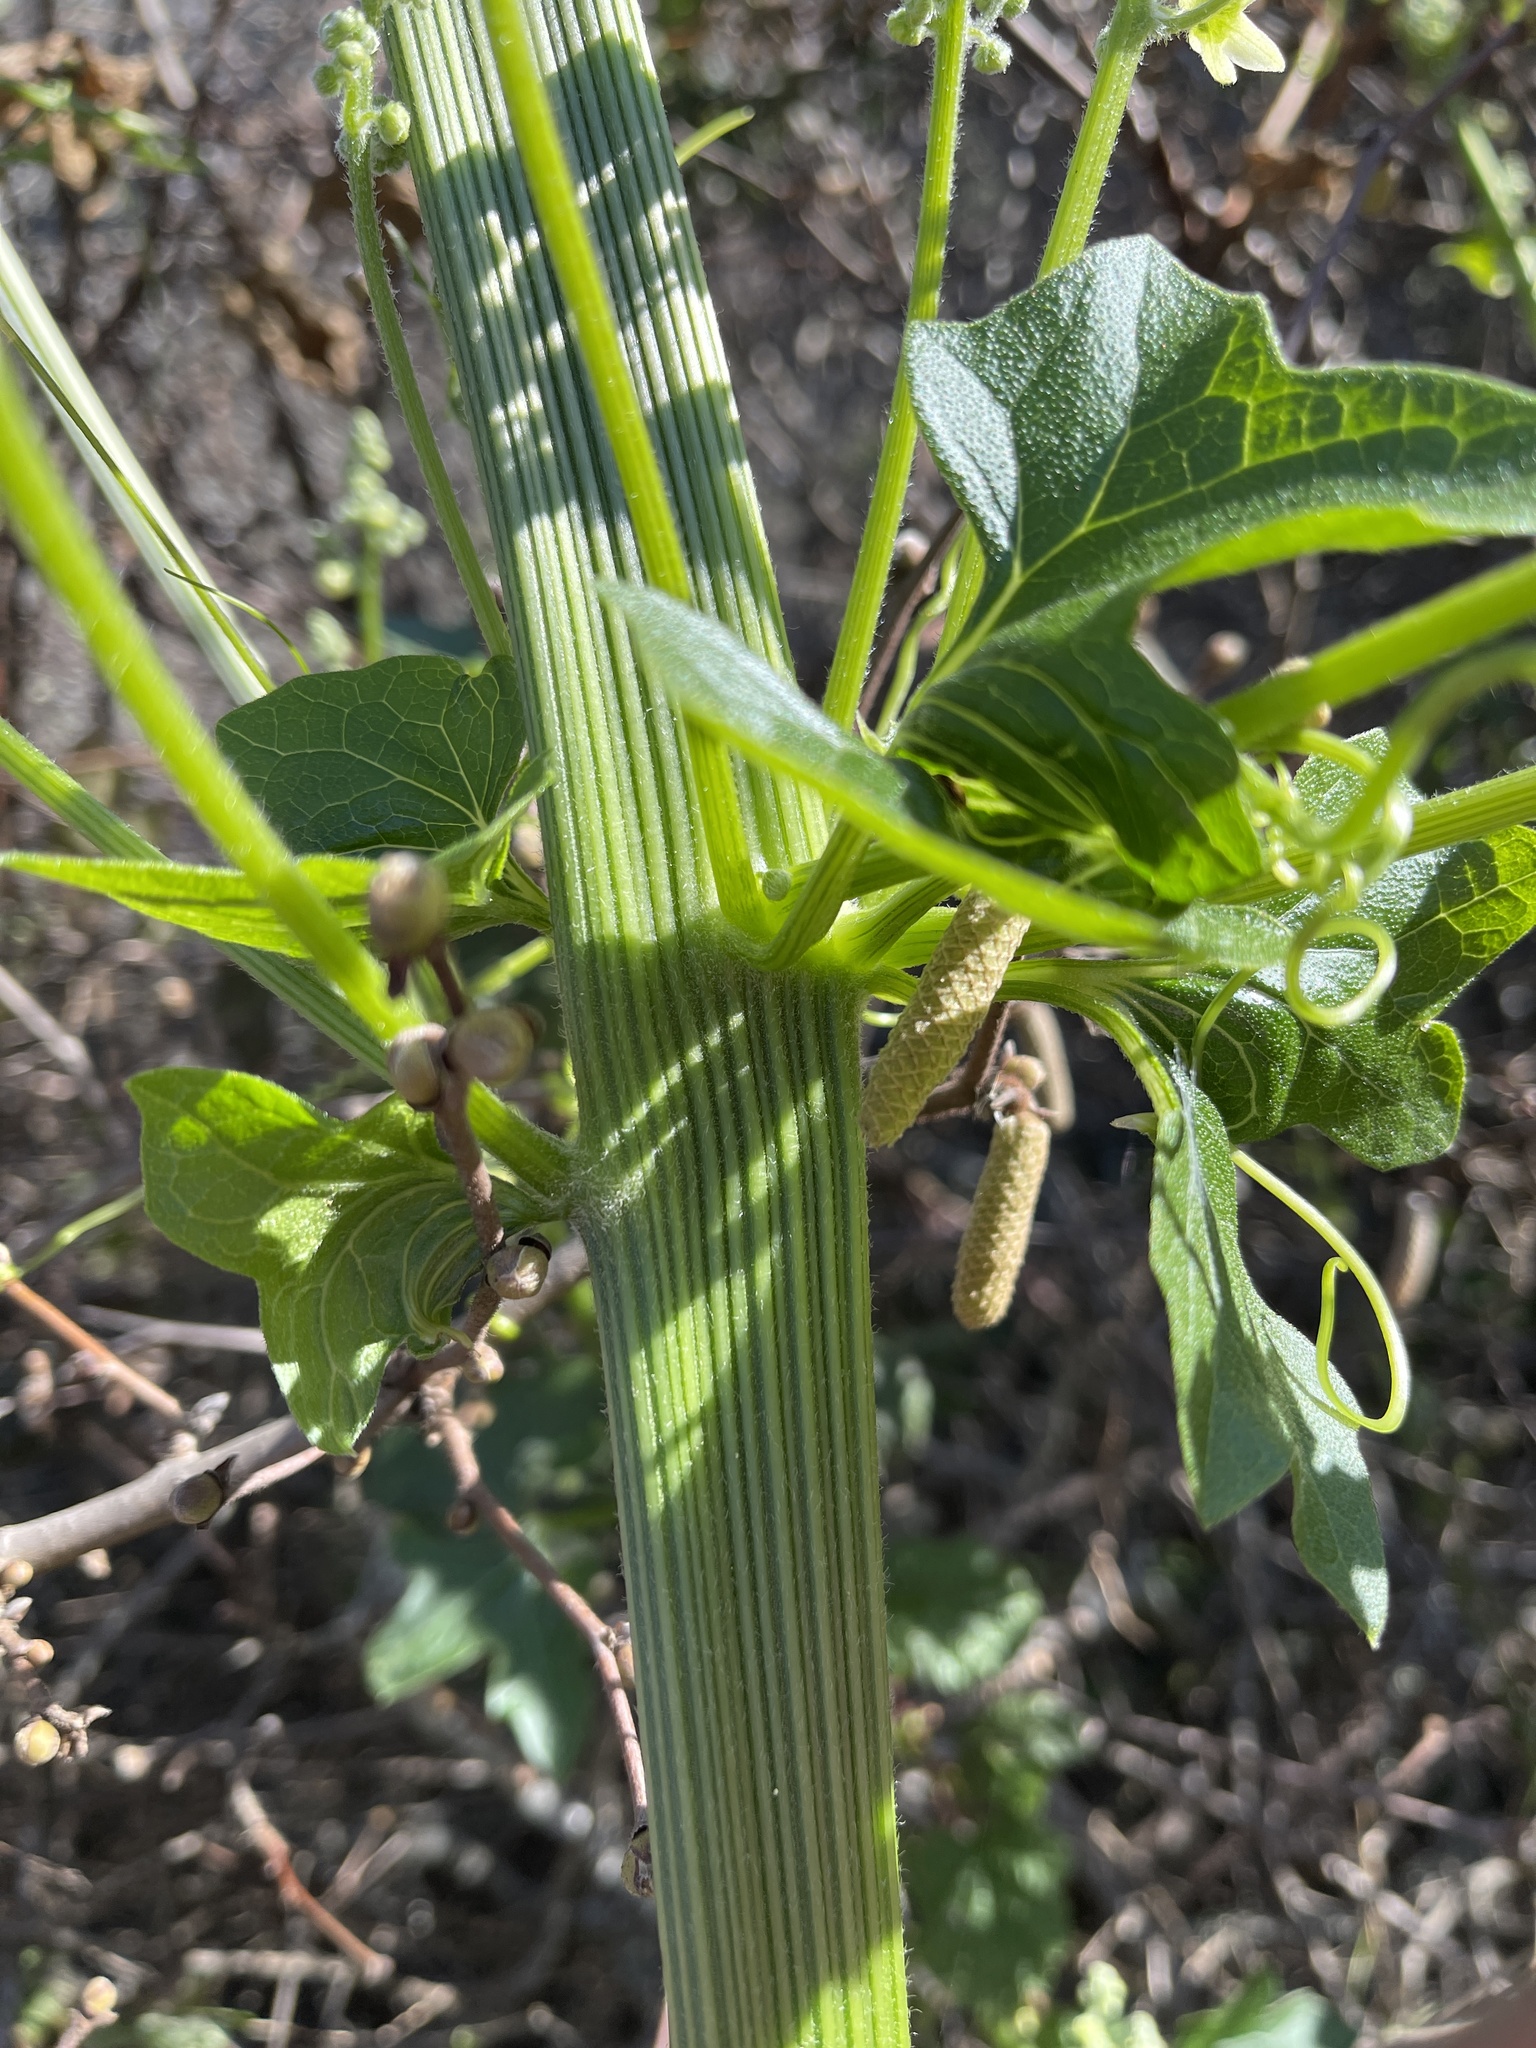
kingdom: Plantae
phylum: Tracheophyta
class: Magnoliopsida
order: Cucurbitales
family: Cucurbitaceae
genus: Marah
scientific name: Marah fabacea
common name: California manroot
